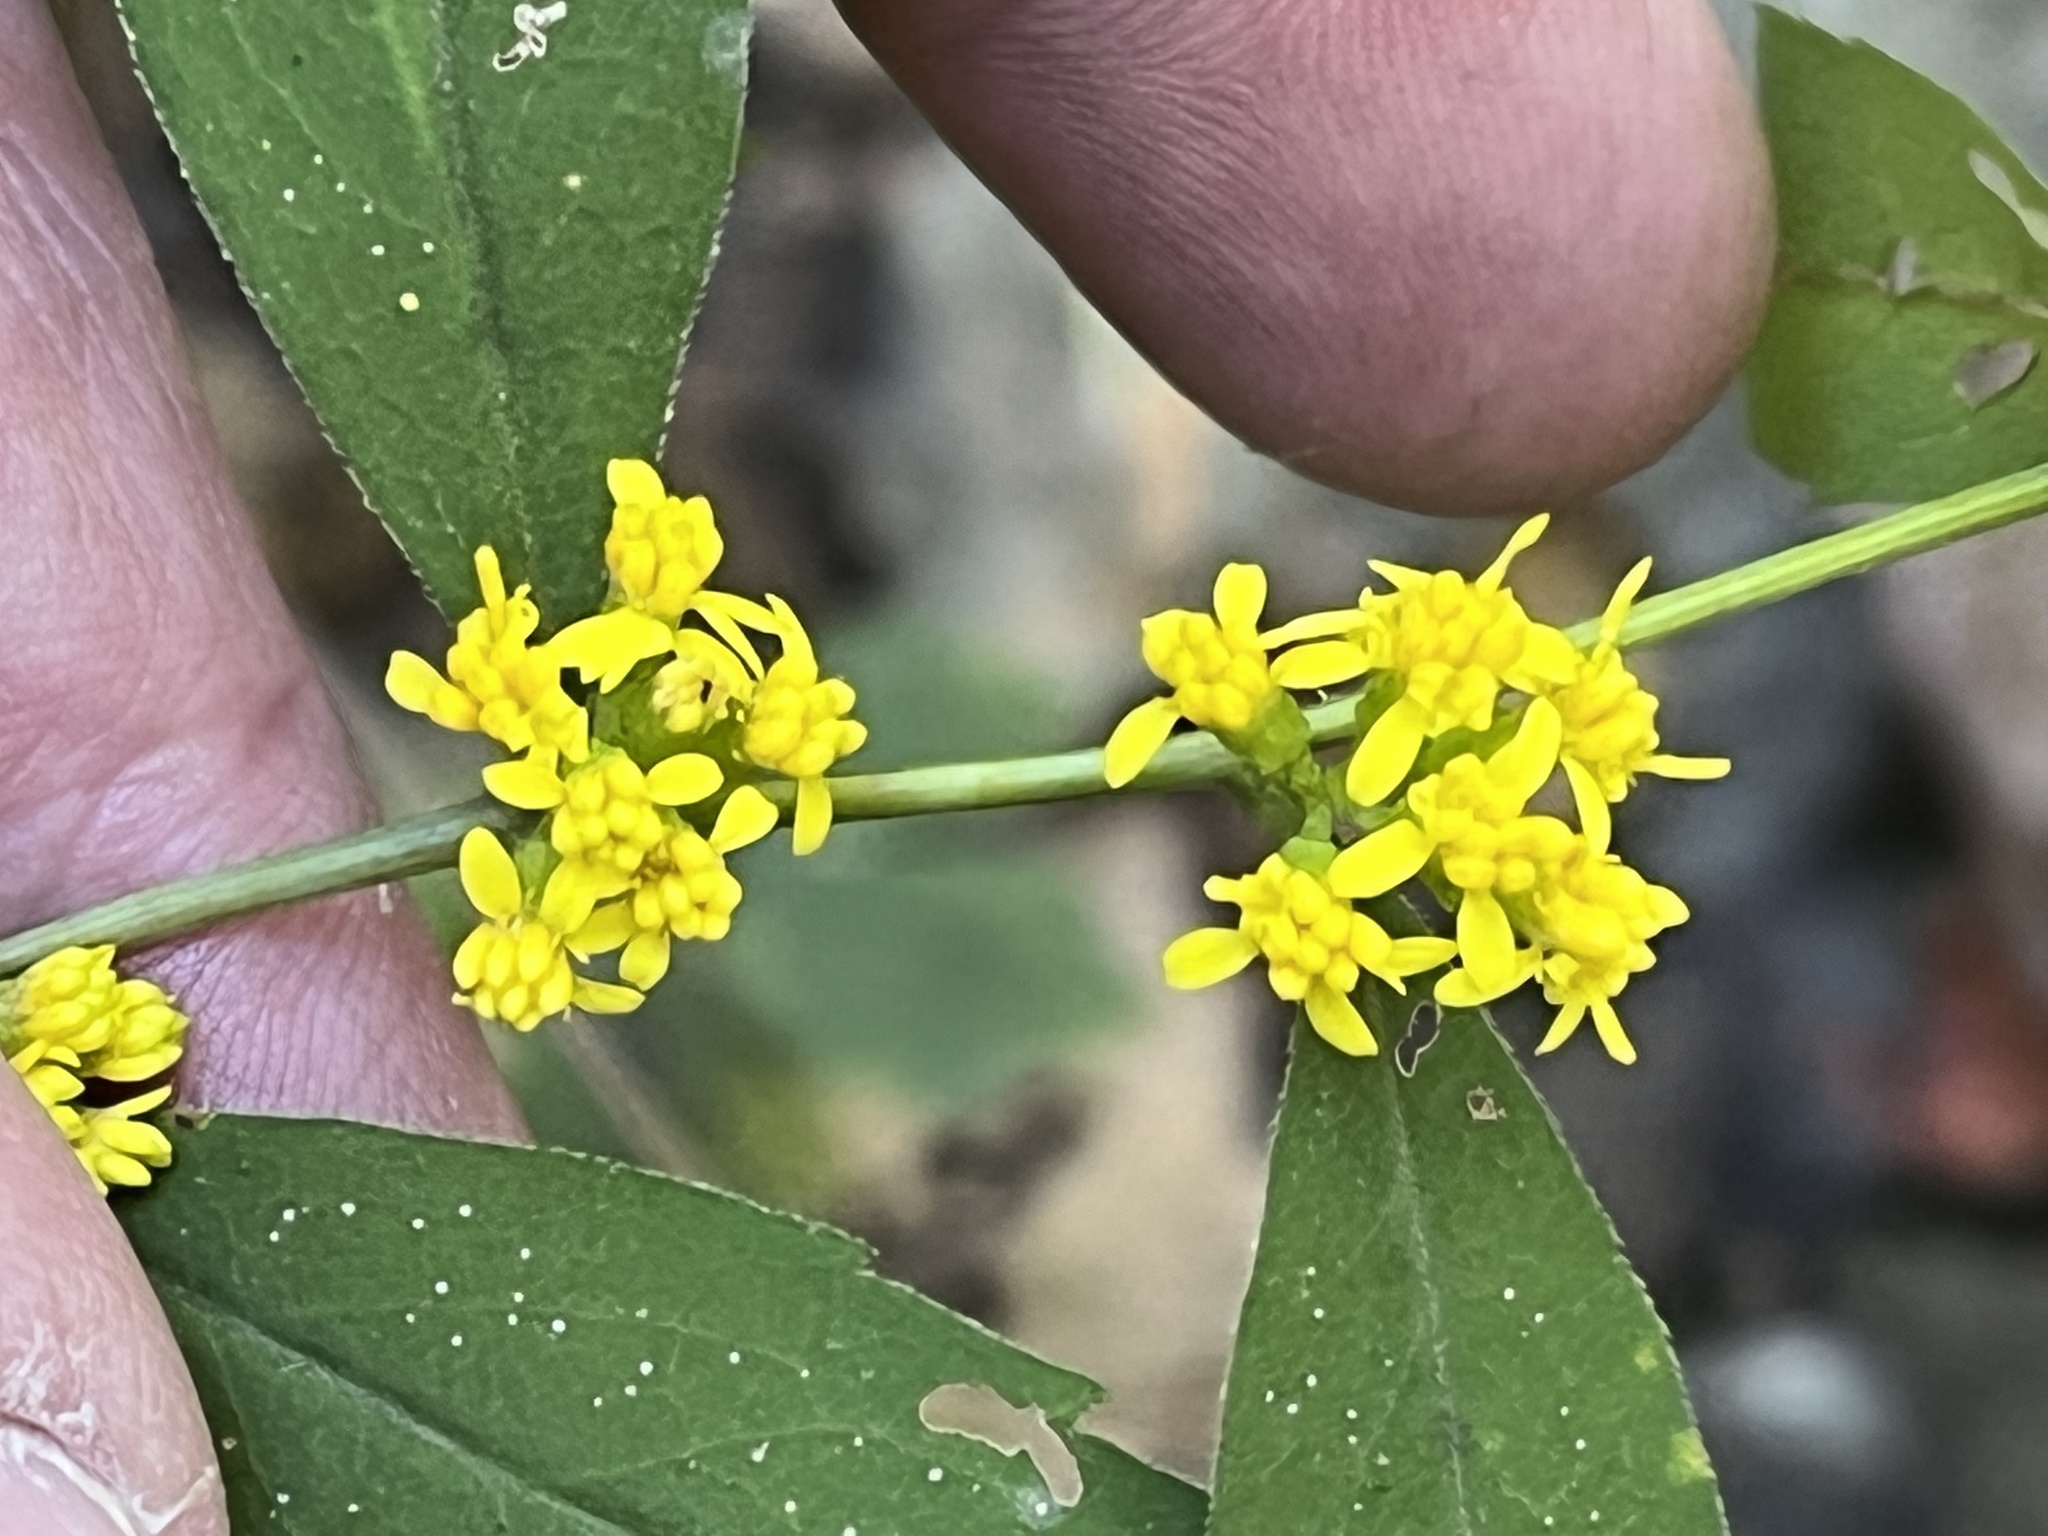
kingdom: Plantae
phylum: Tracheophyta
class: Magnoliopsida
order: Asterales
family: Asteraceae
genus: Solidago
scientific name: Solidago caesia
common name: Woodland goldenrod
